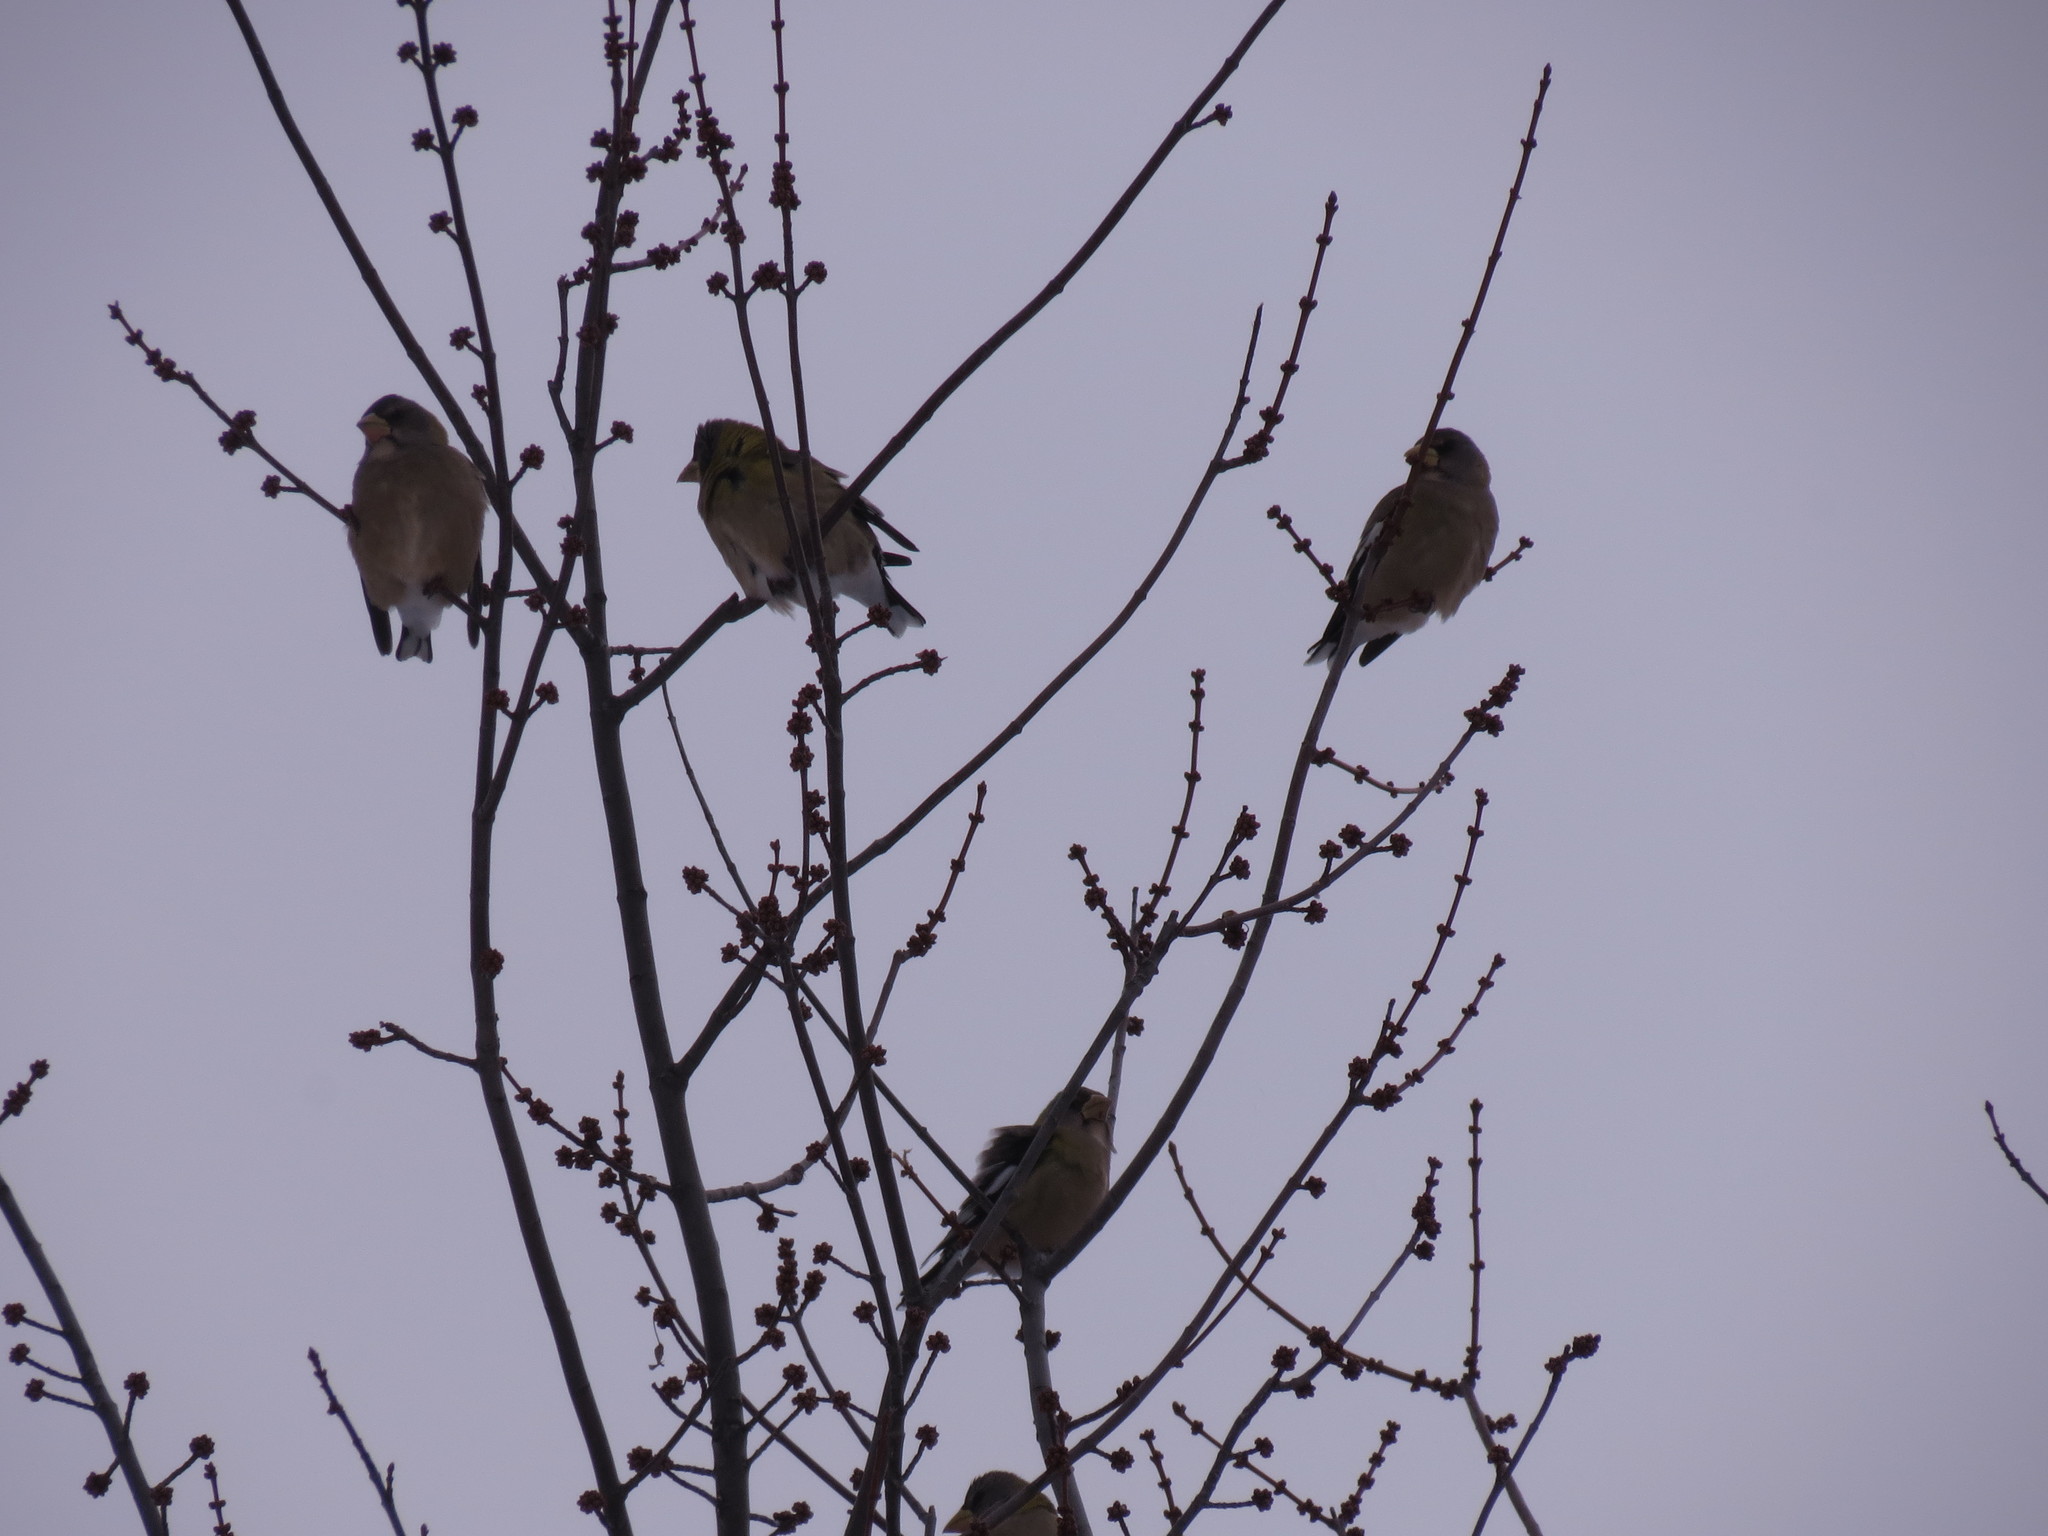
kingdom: Animalia
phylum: Chordata
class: Aves
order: Passeriformes
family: Fringillidae
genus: Hesperiphona
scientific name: Hesperiphona vespertina
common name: Evening grosbeak
